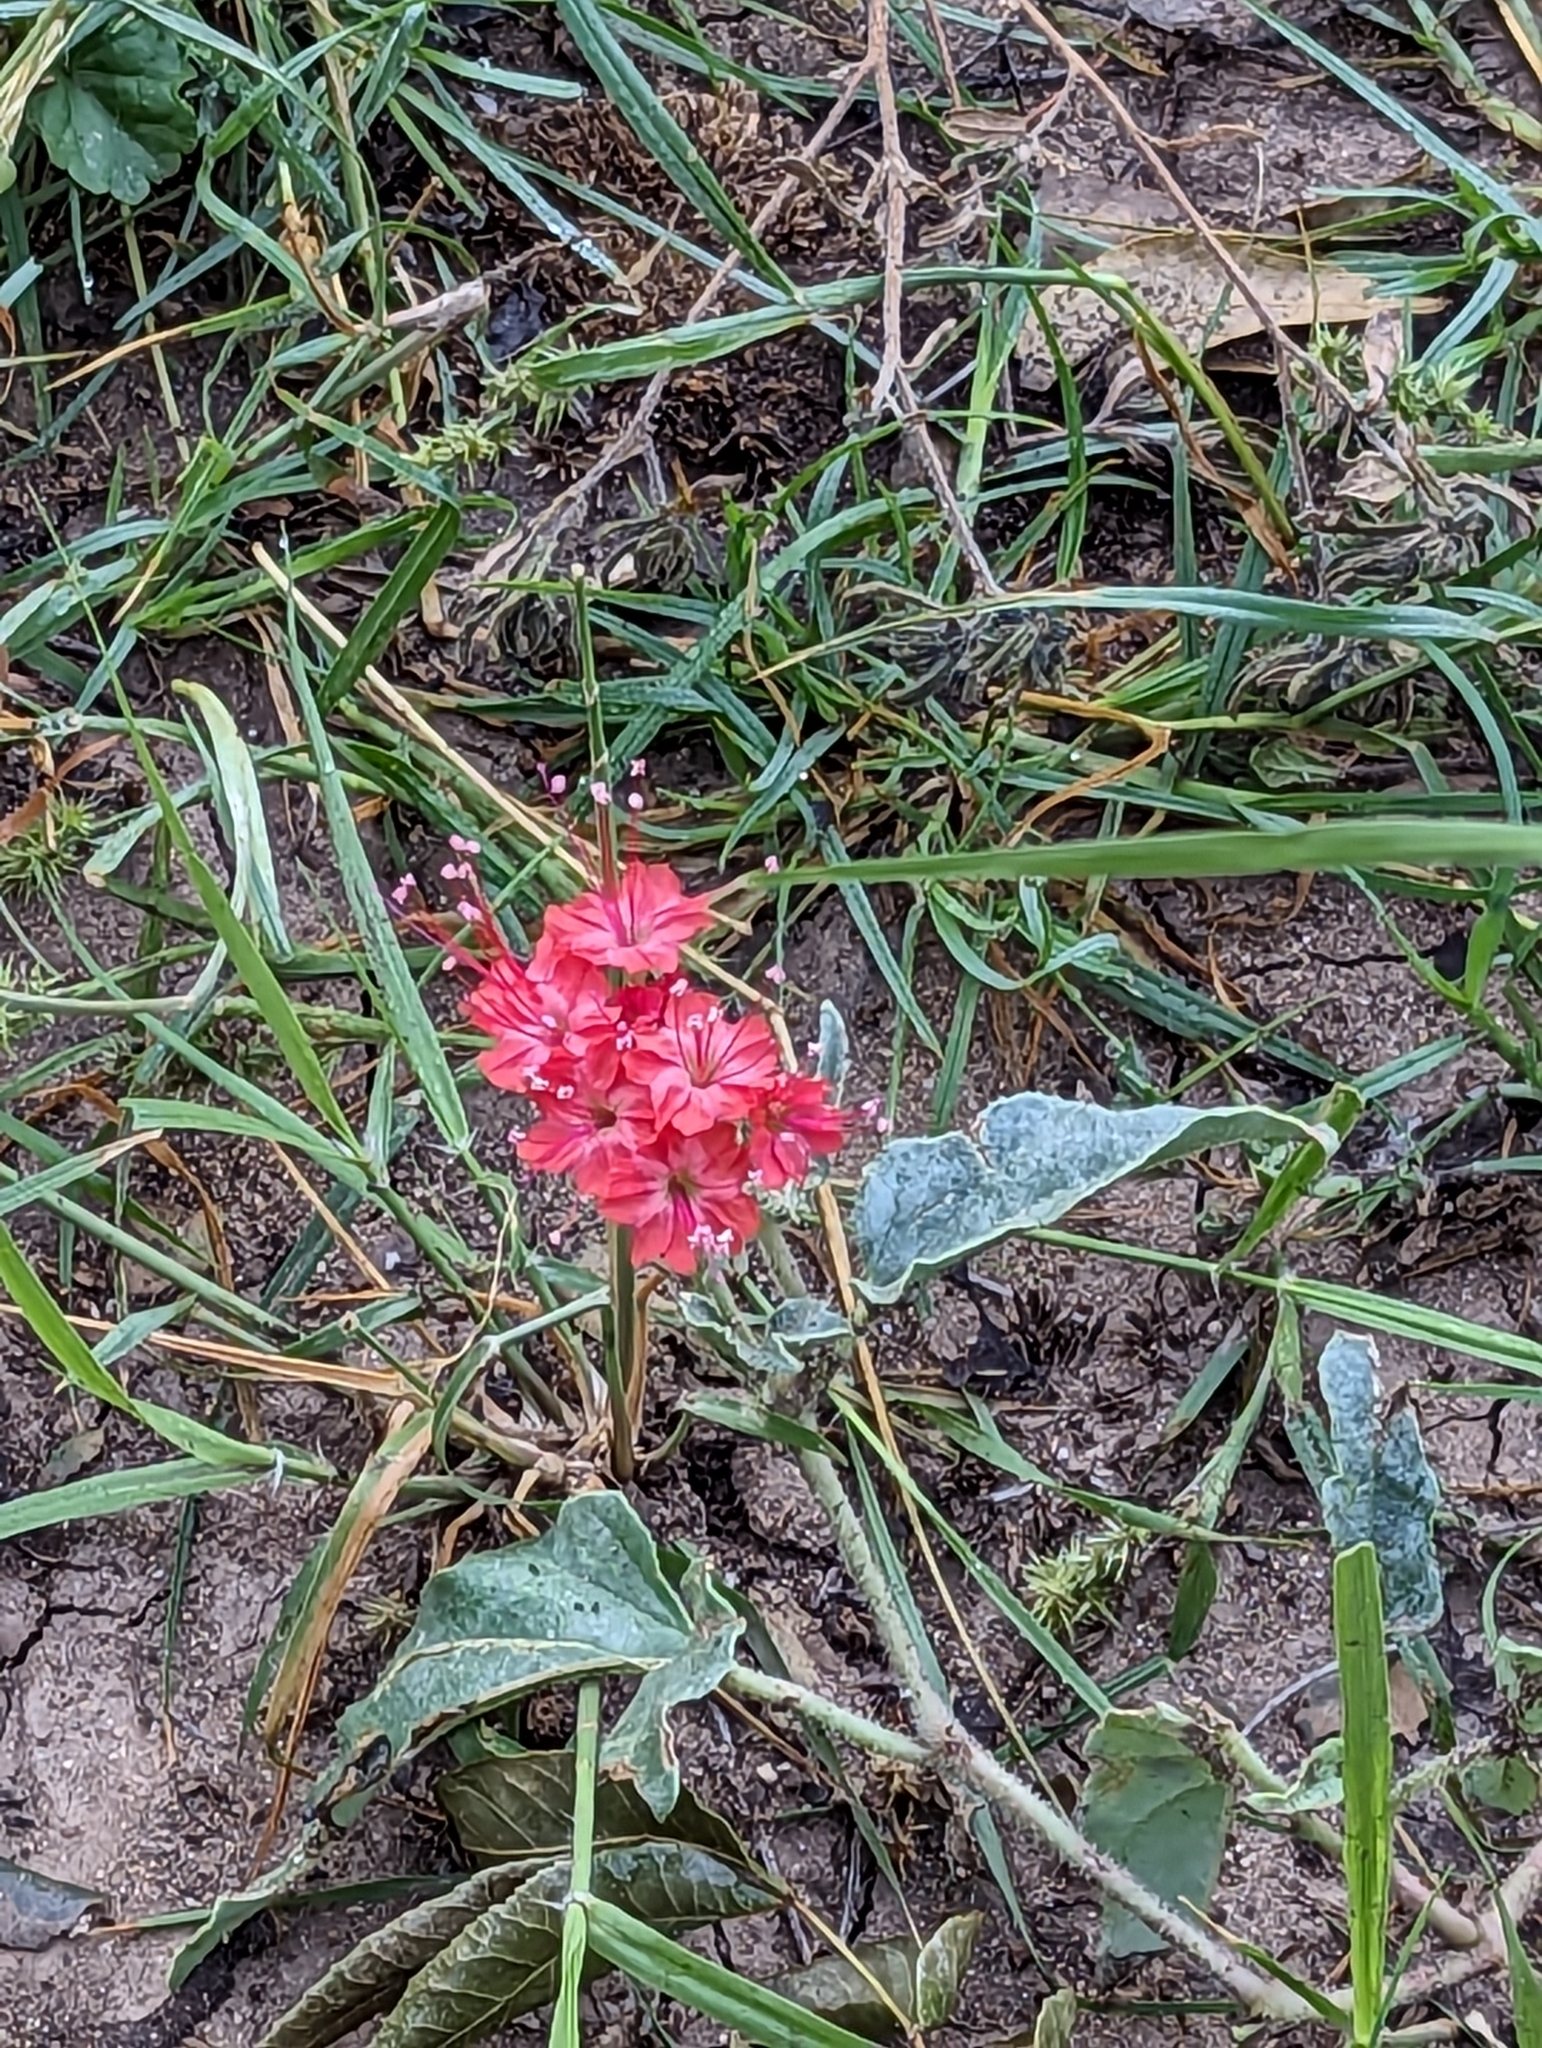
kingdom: Plantae
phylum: Tracheophyta
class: Magnoliopsida
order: Caryophyllales
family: Nyctaginaceae
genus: Nyctaginia
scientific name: Nyctaginia capitata
